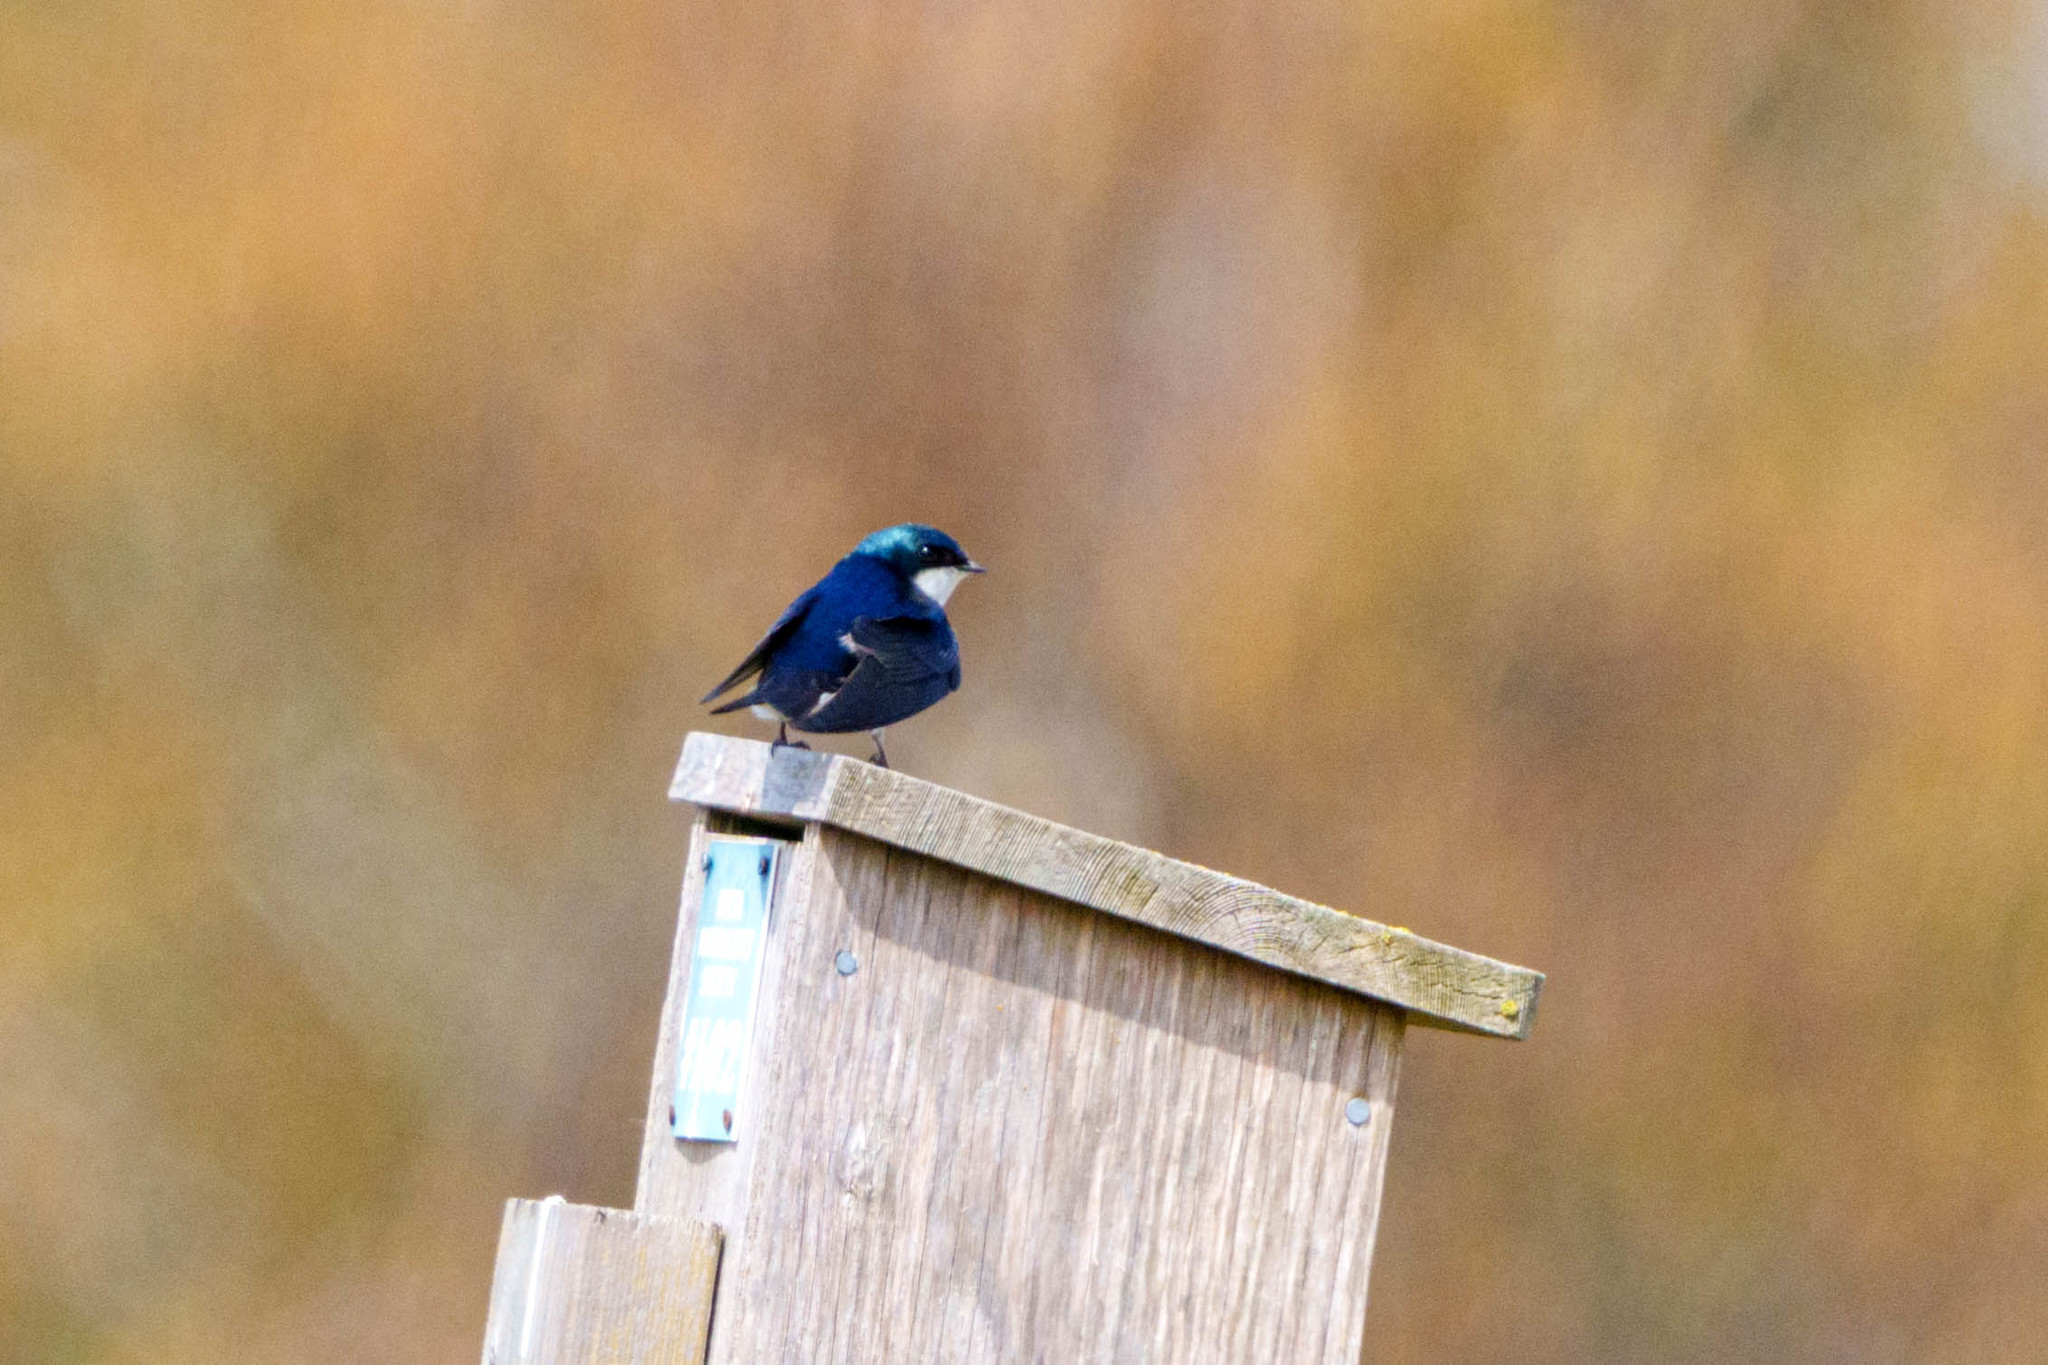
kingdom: Animalia
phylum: Chordata
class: Aves
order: Passeriformes
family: Hirundinidae
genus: Tachycineta
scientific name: Tachycineta bicolor
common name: Tree swallow
